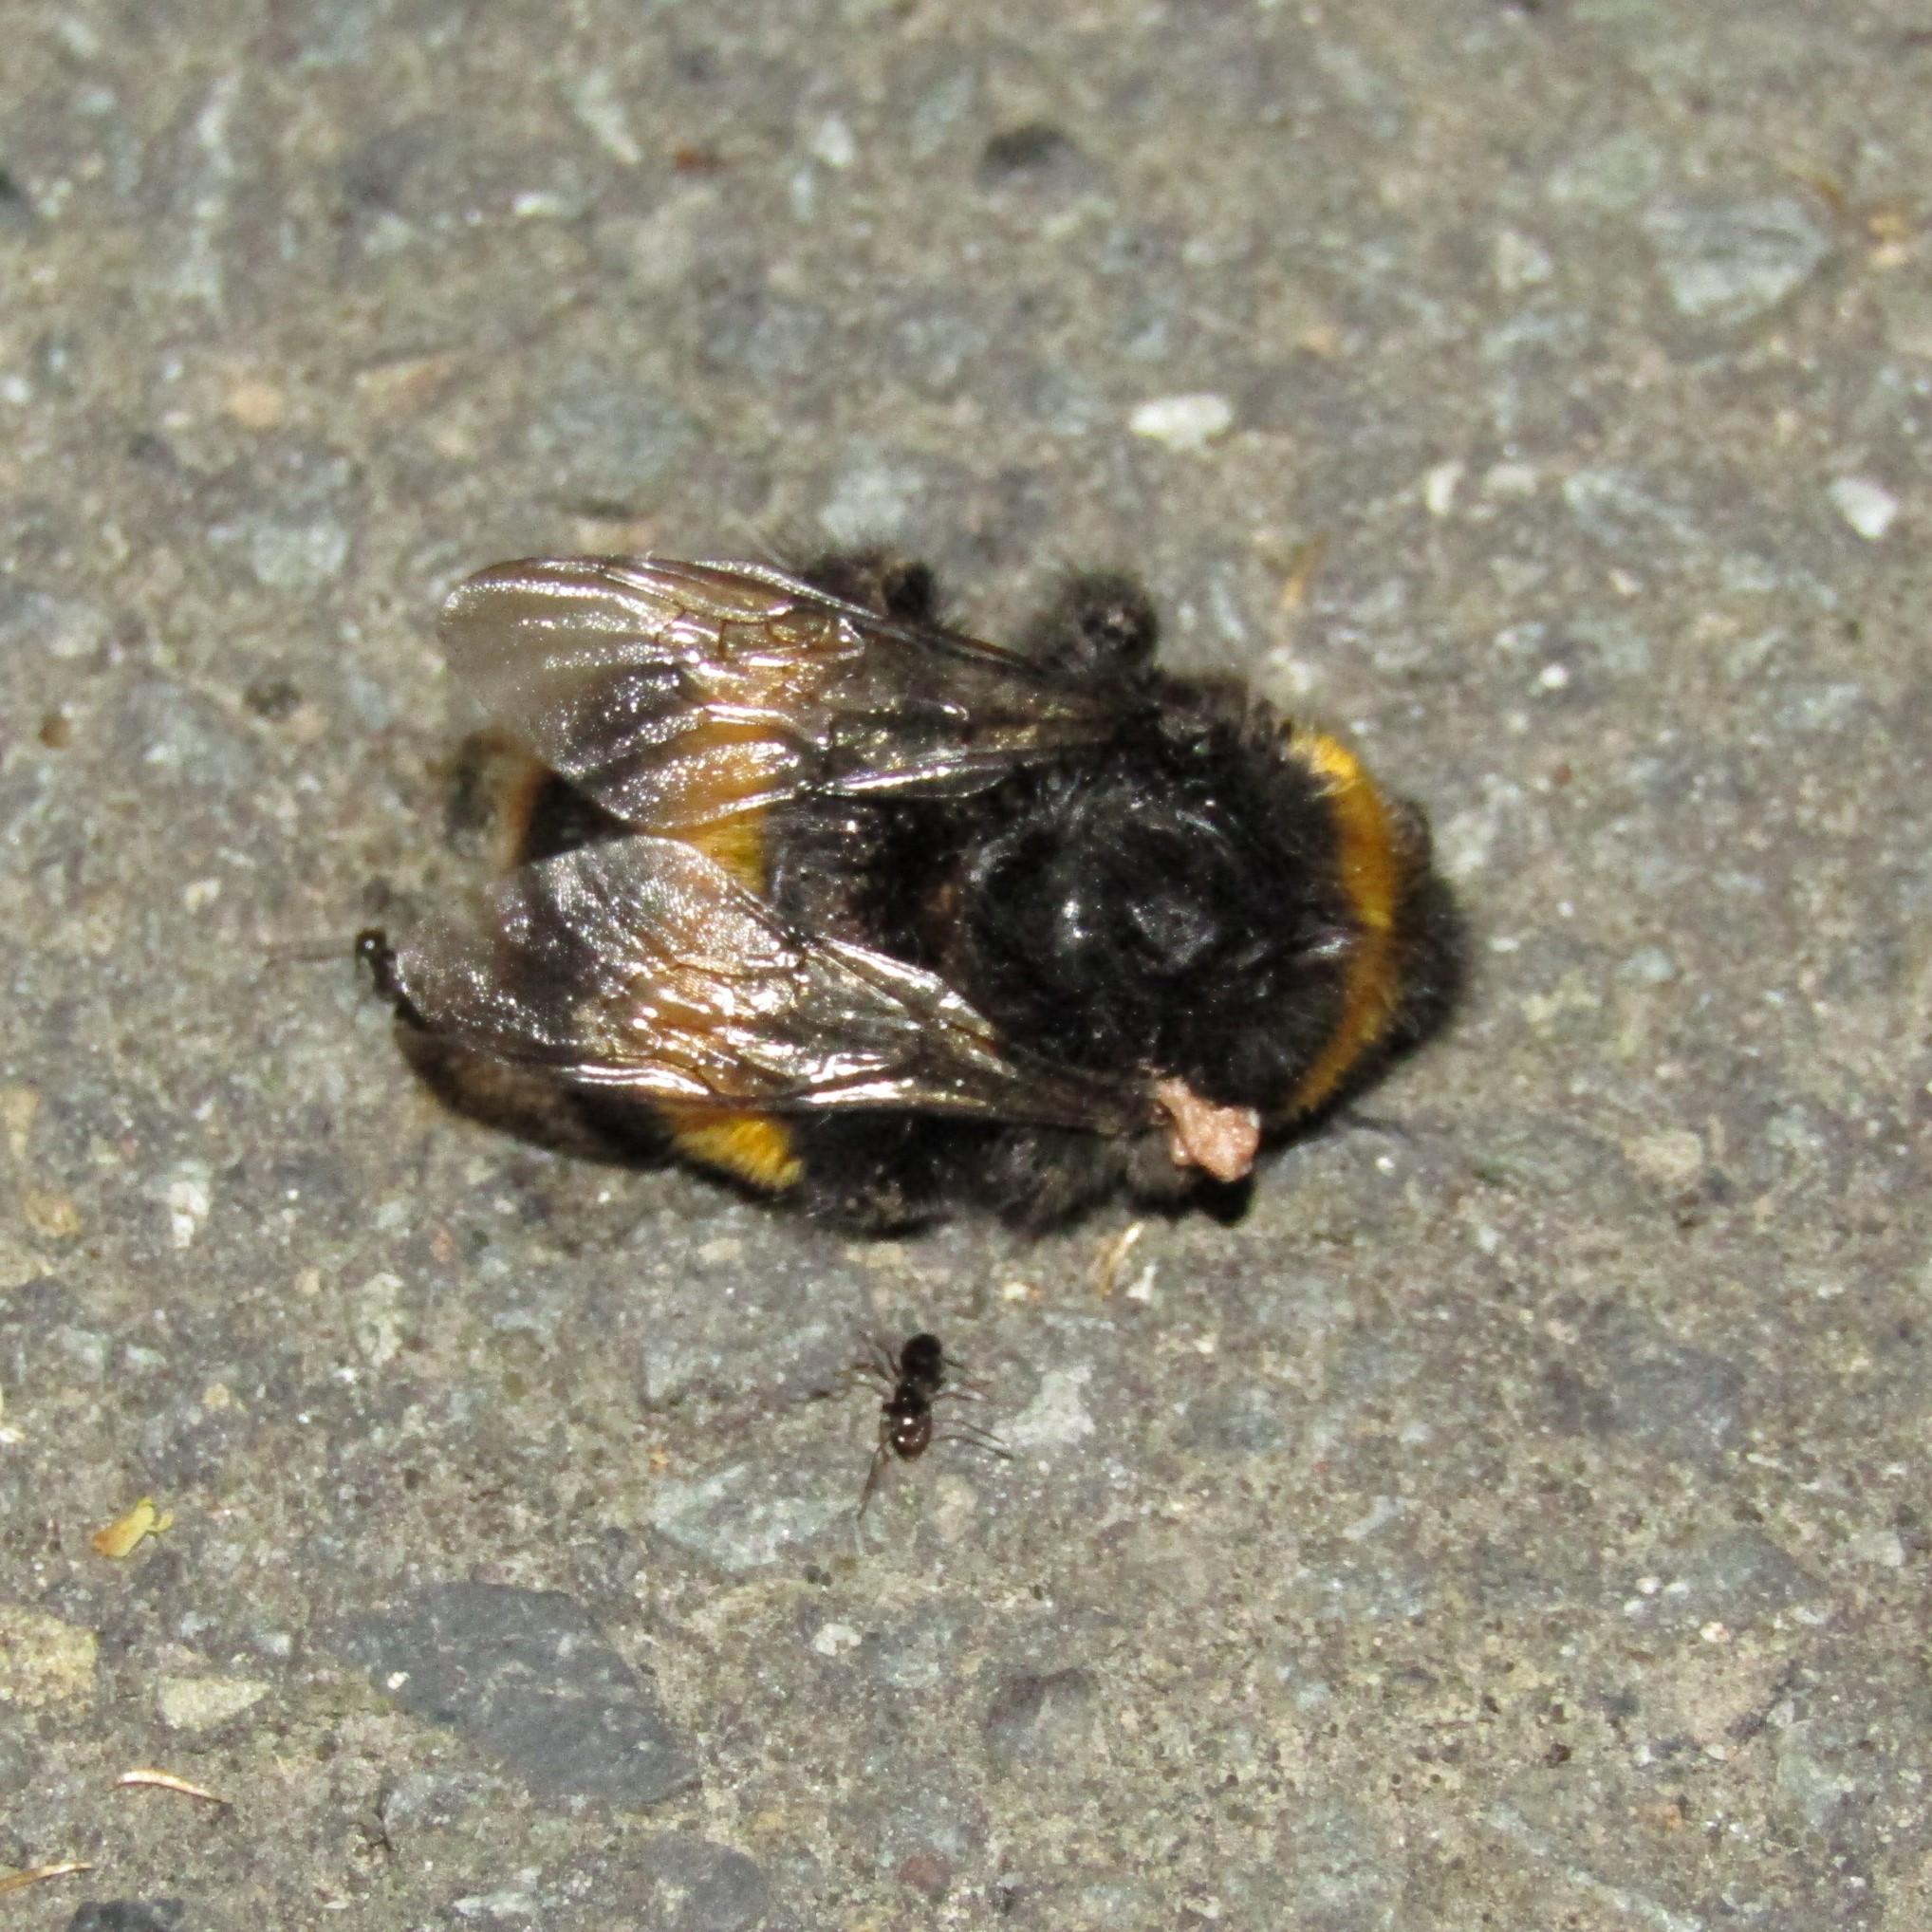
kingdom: Animalia
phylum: Arthropoda
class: Insecta
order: Hymenoptera
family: Apidae
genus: Bombus
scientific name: Bombus terrestris
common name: Buff-tailed bumblebee
